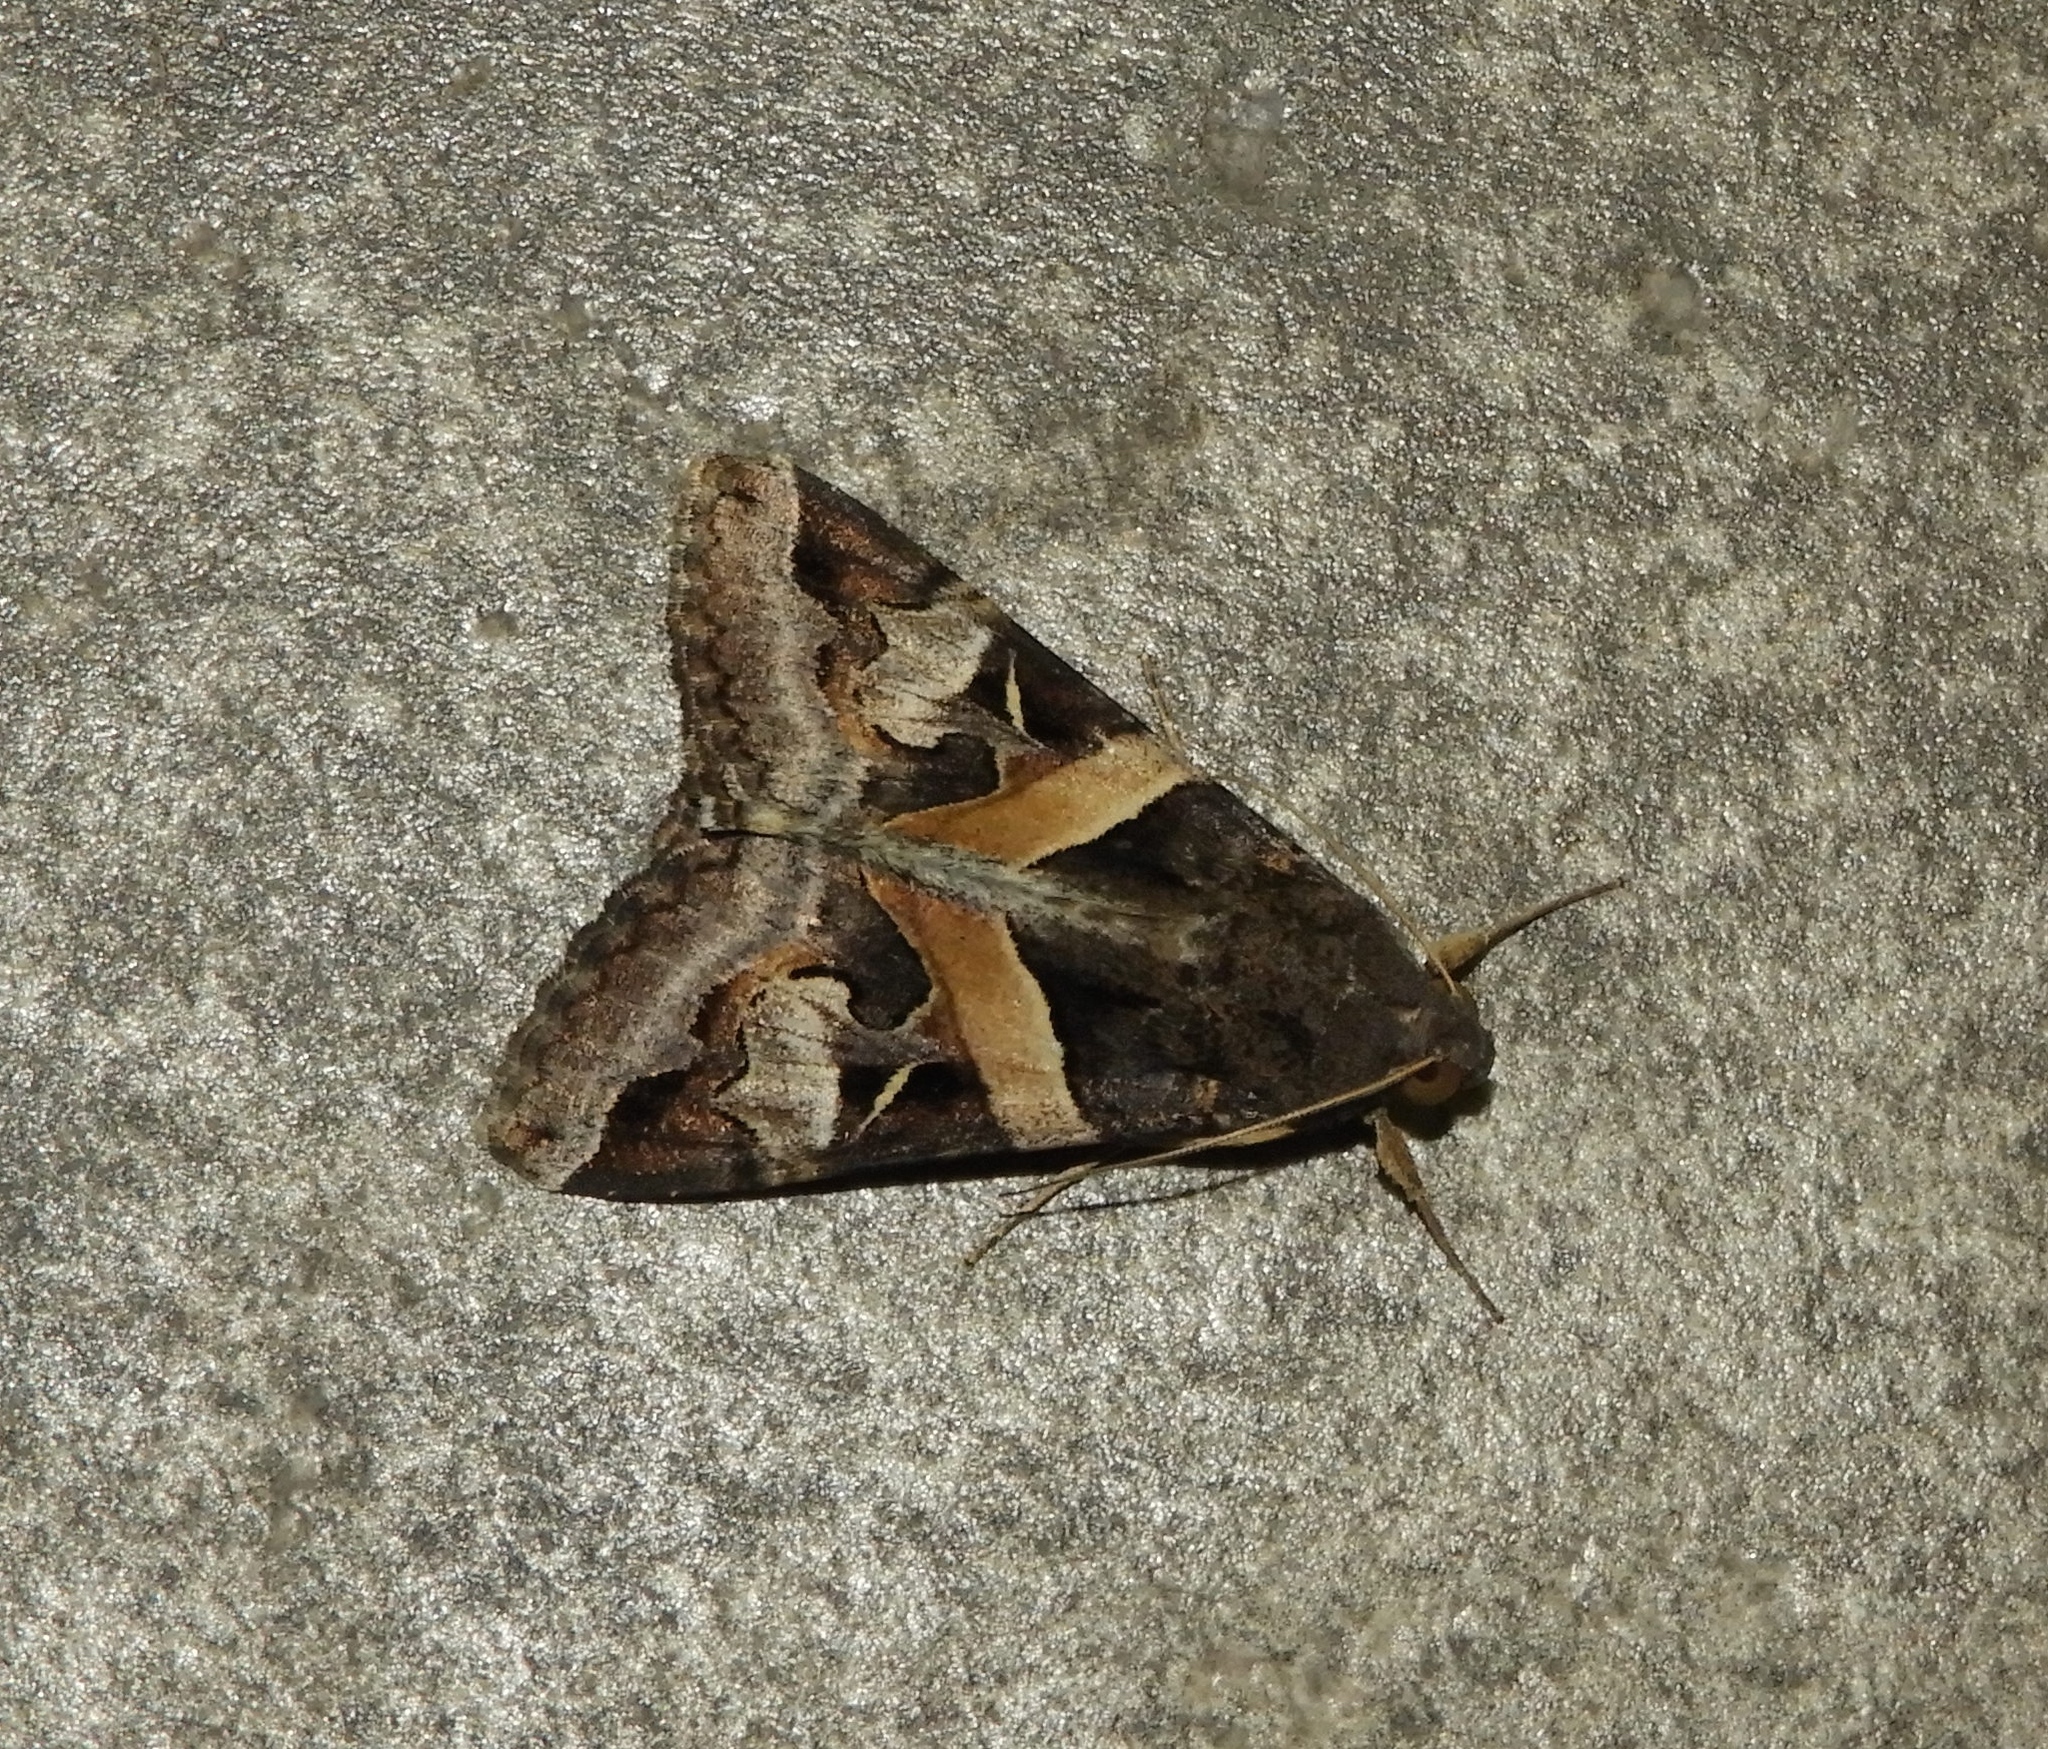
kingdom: Animalia
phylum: Arthropoda
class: Insecta
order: Lepidoptera
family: Erebidae
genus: Melipotis
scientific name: Melipotis indomita
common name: Moth
